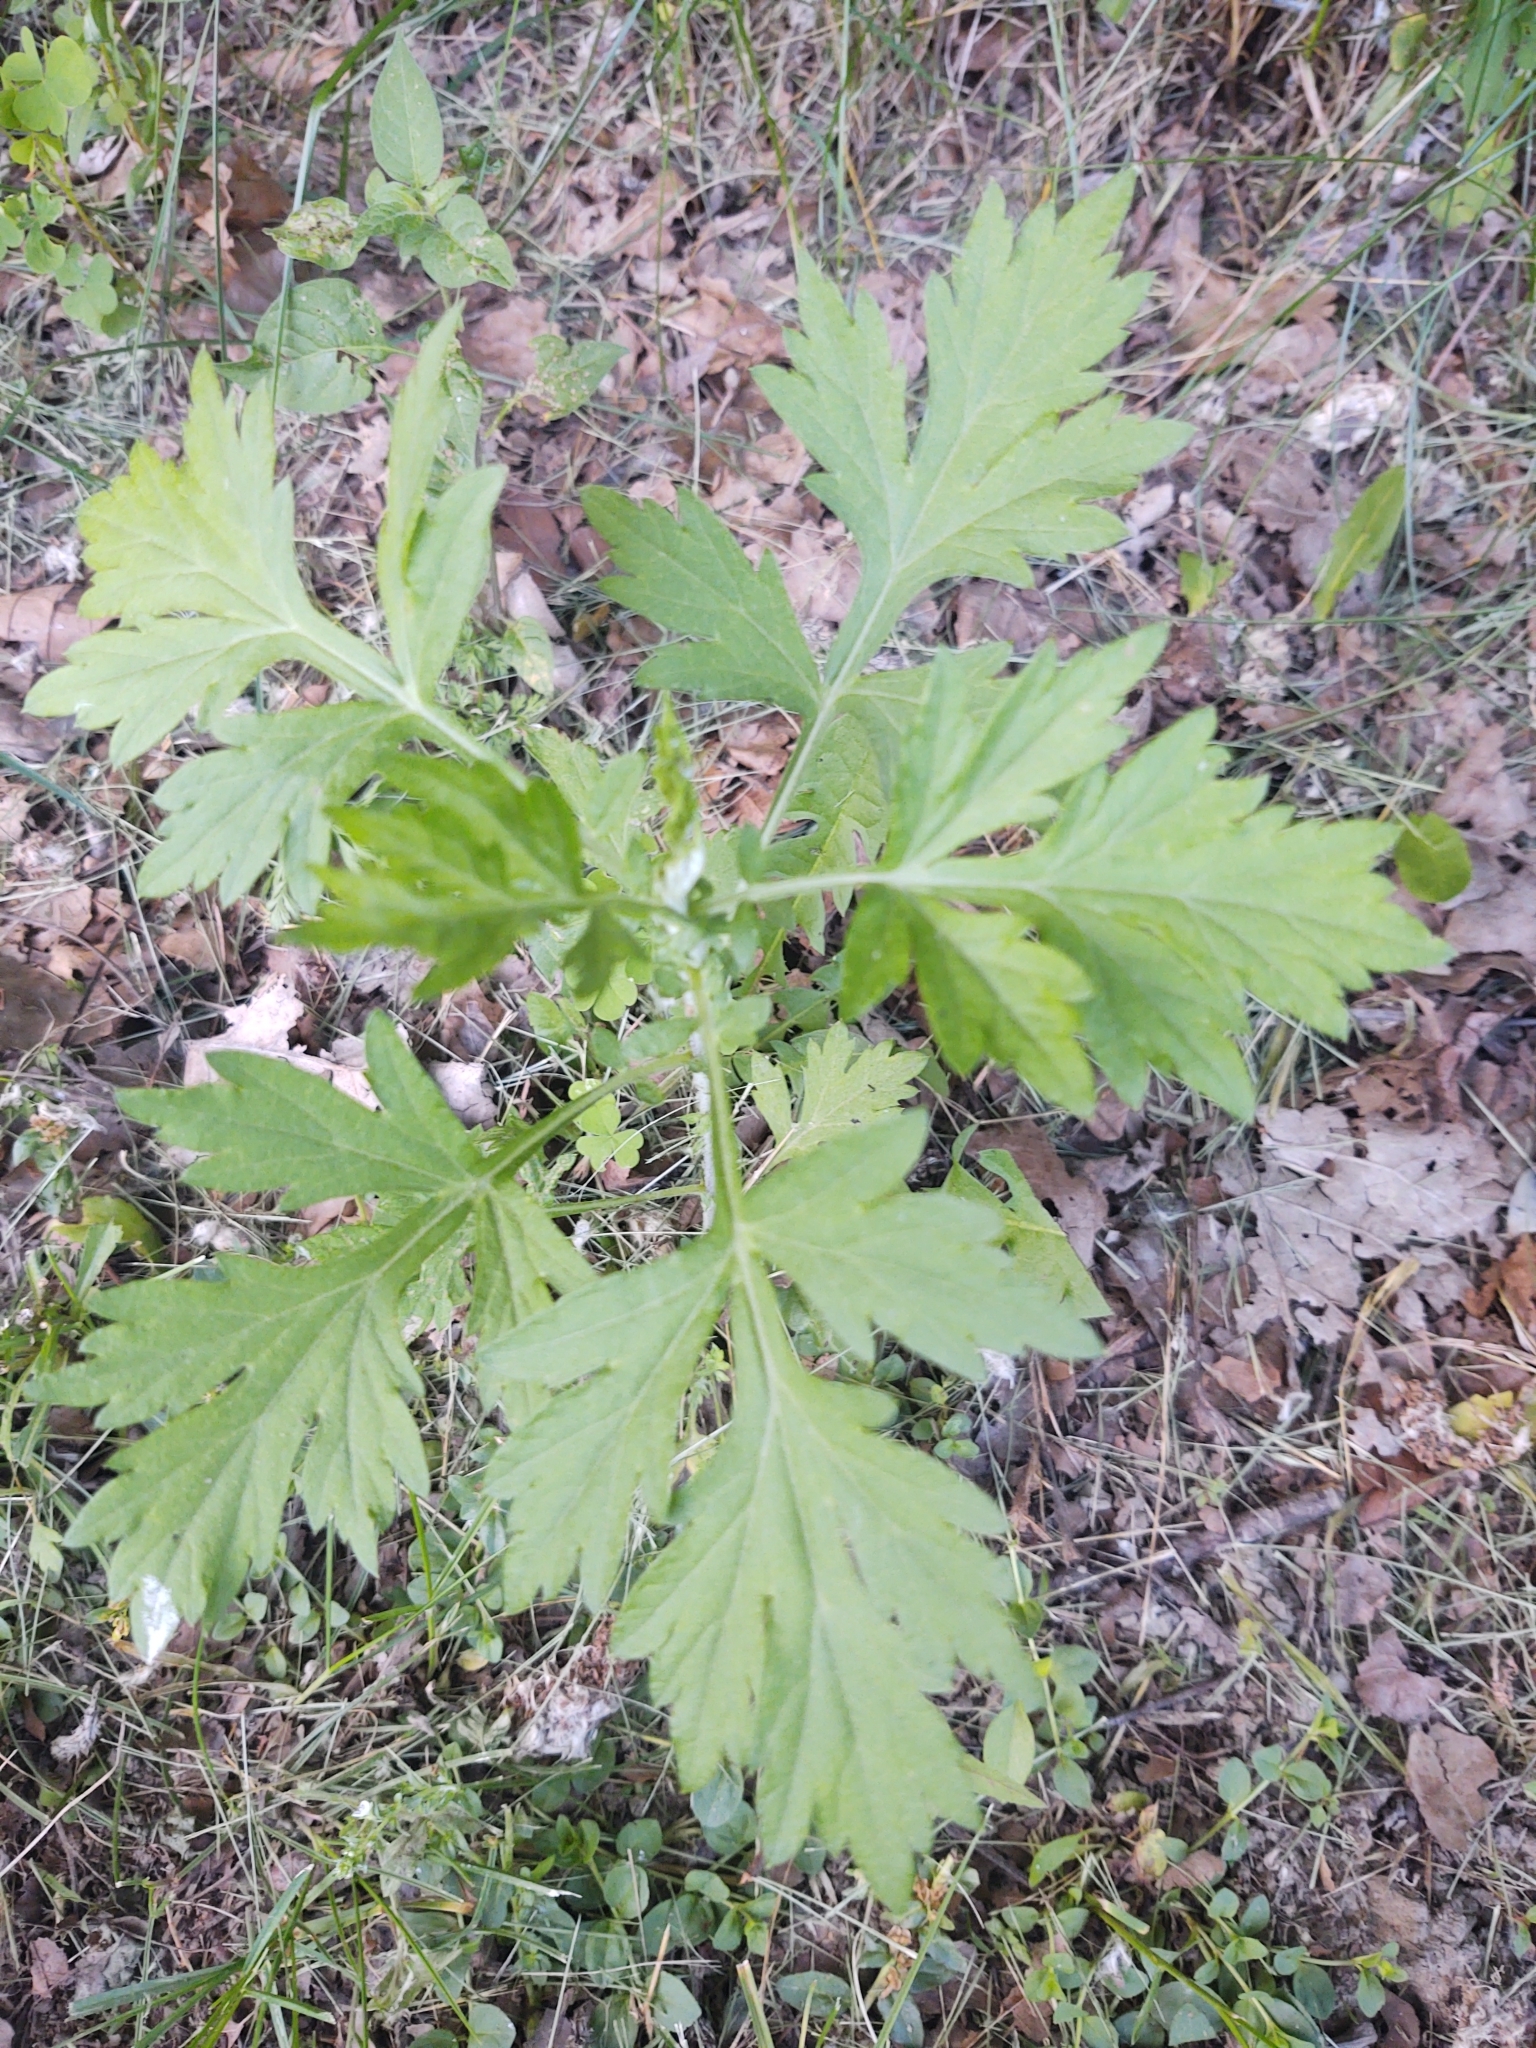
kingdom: Plantae
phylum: Tracheophyta
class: Magnoliopsida
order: Asterales
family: Asteraceae
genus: Artemisia
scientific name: Artemisia vulgaris
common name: Mugwort
